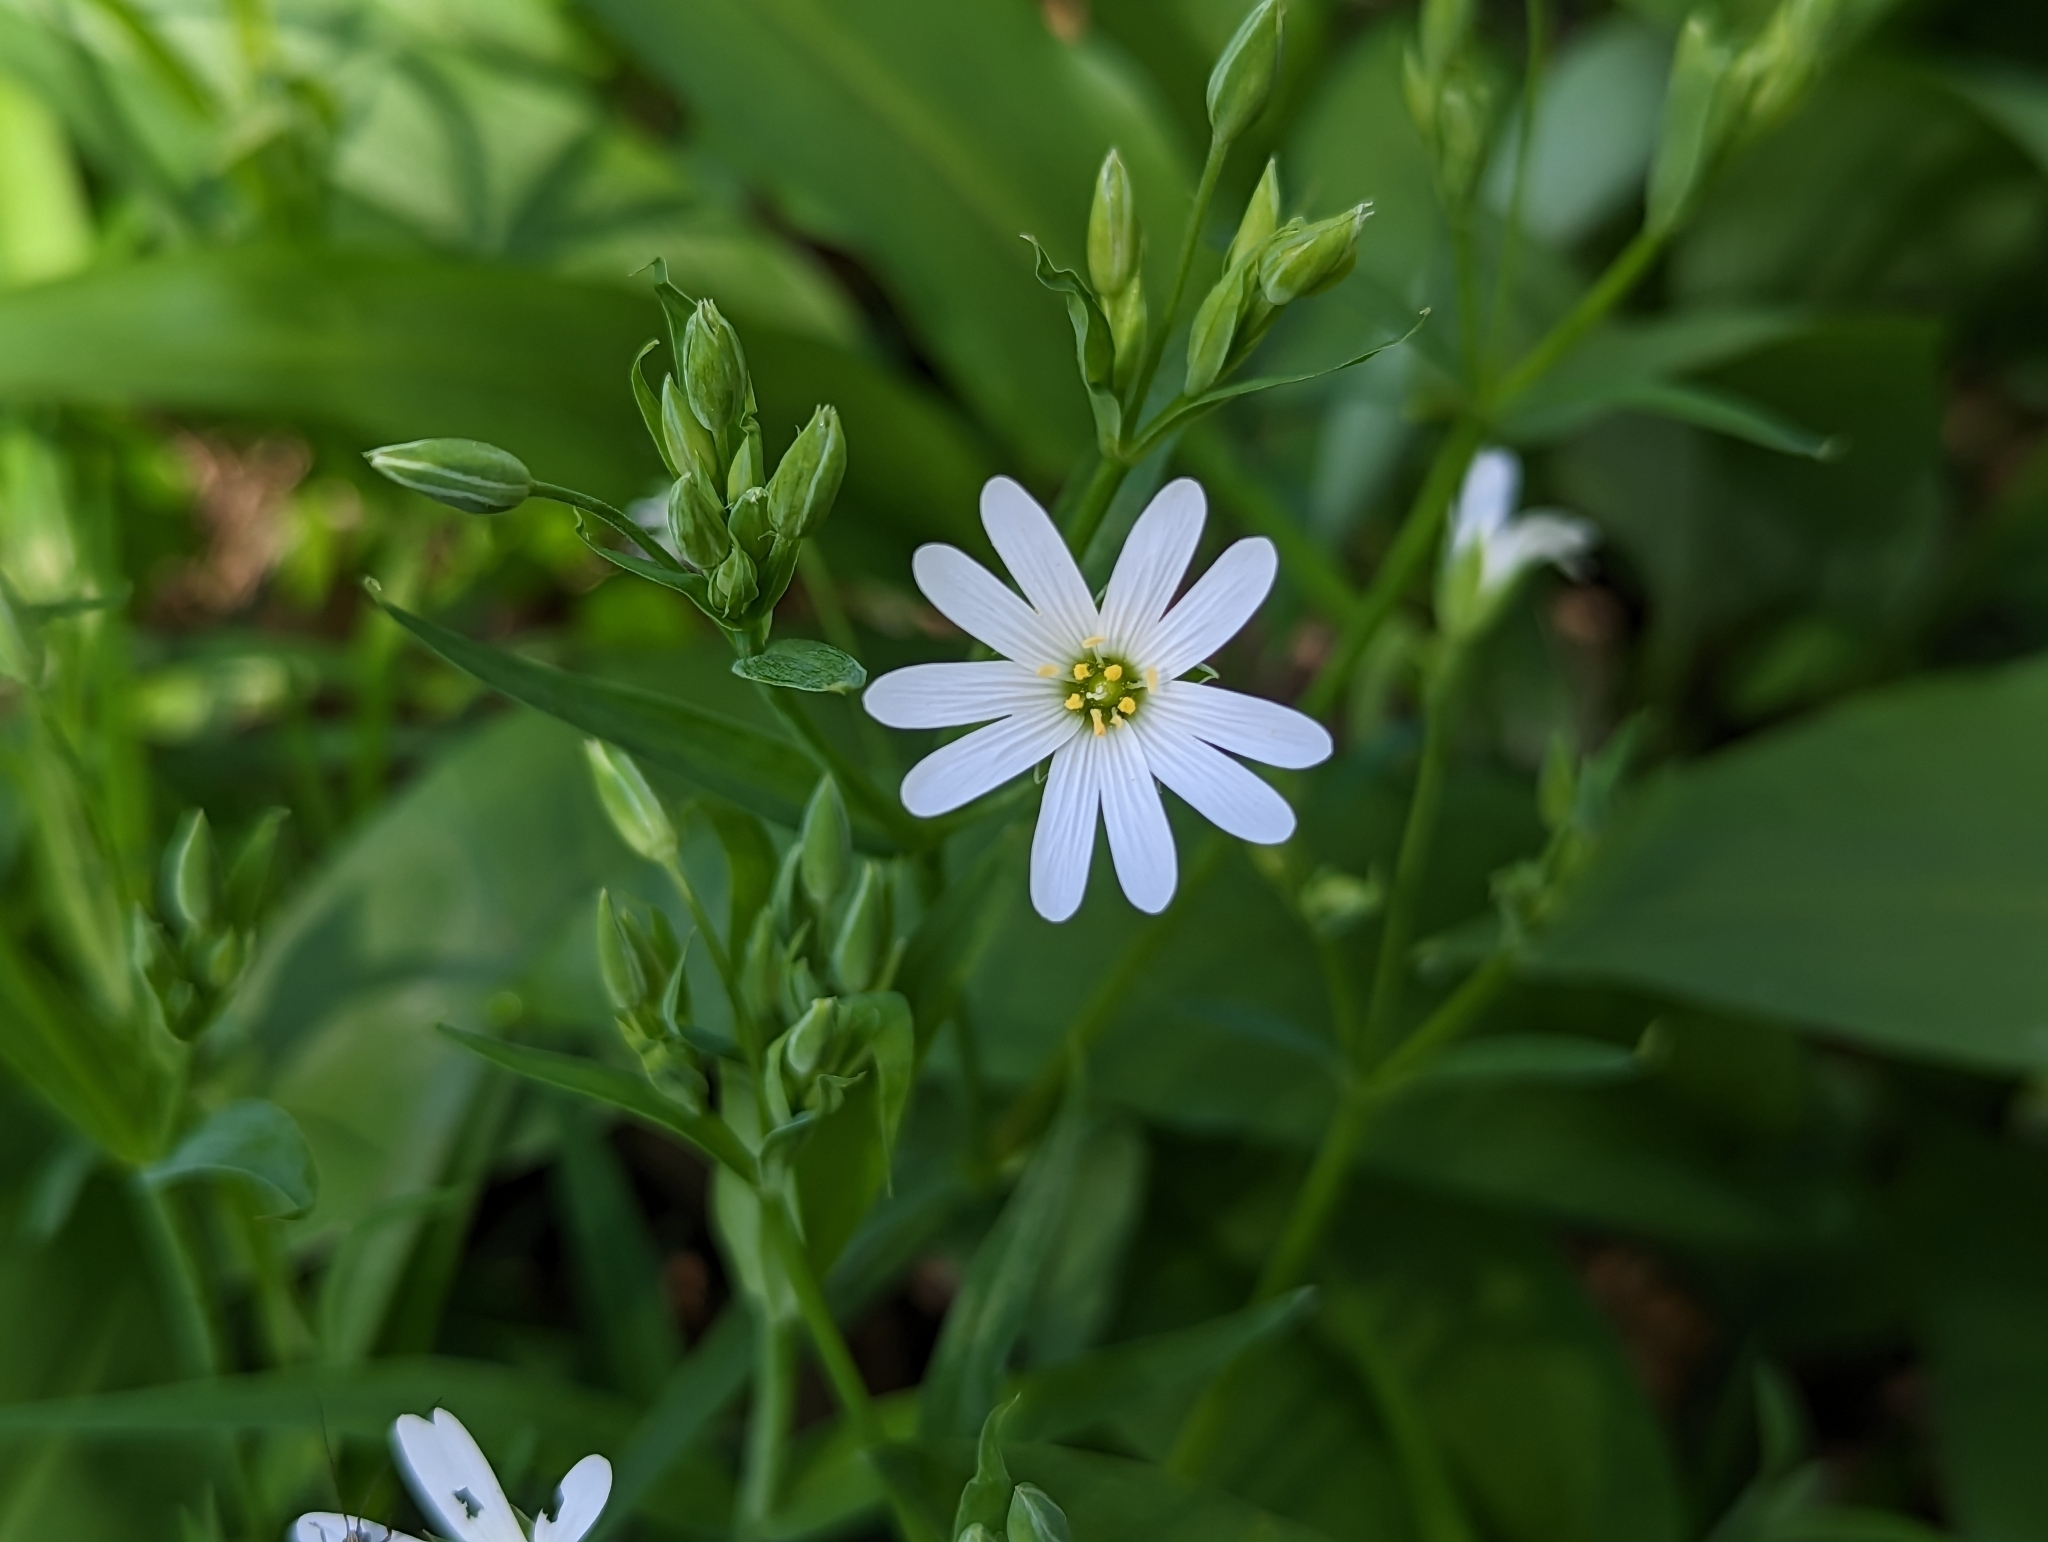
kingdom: Plantae
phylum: Tracheophyta
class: Magnoliopsida
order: Caryophyllales
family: Caryophyllaceae
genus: Rabelera
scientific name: Rabelera holostea
